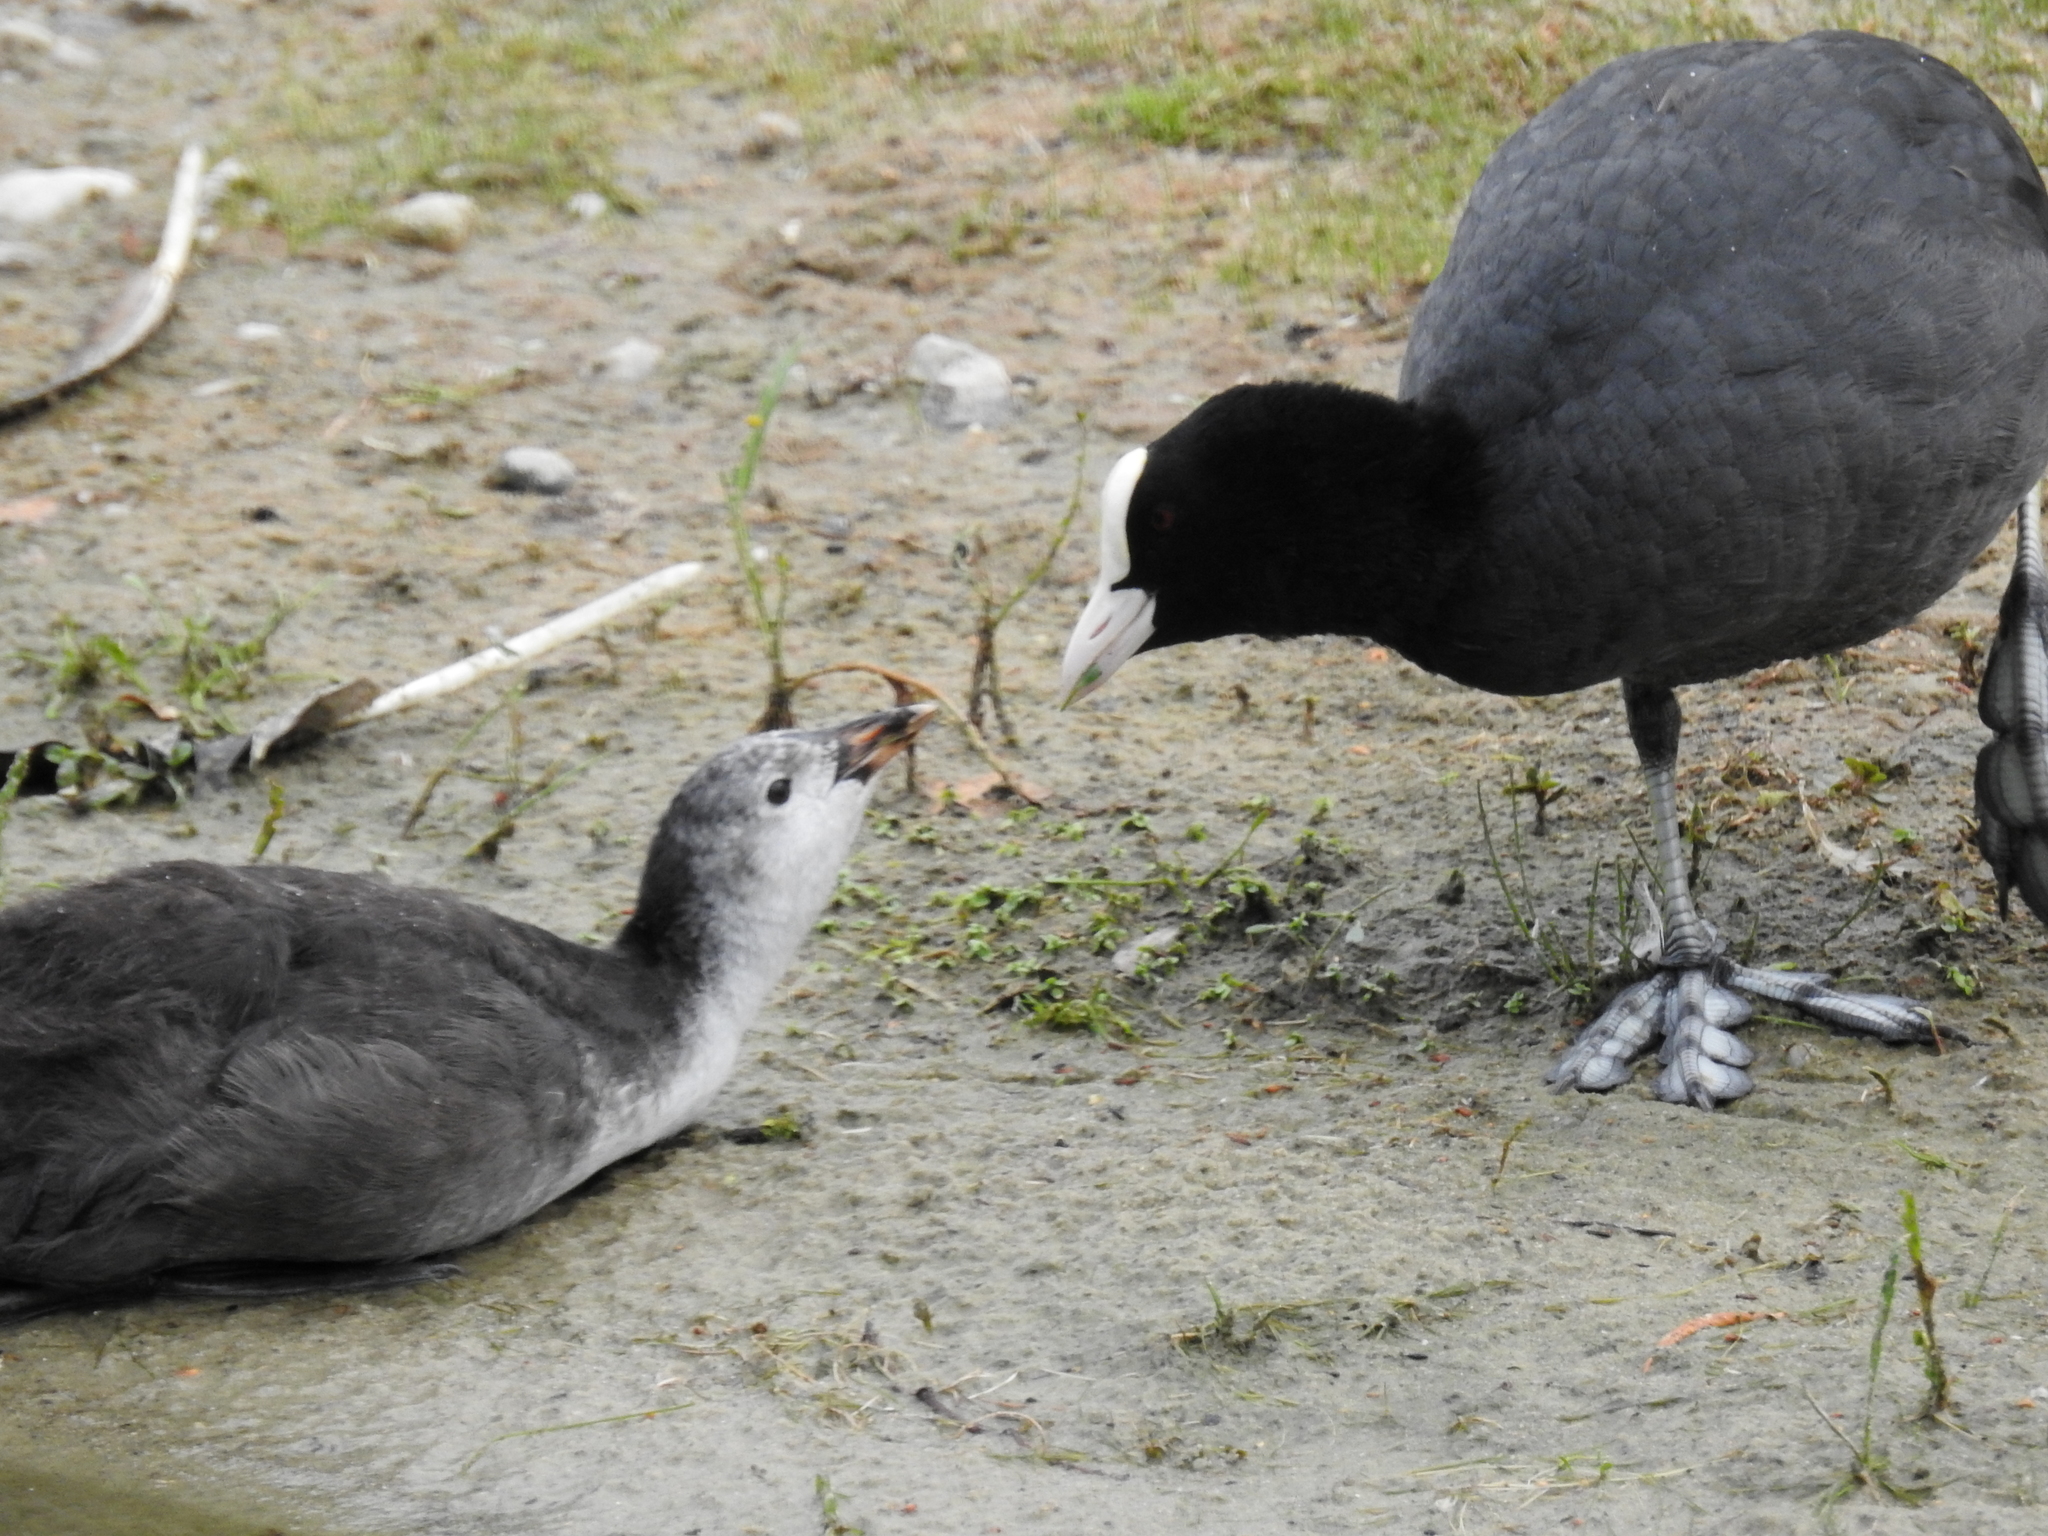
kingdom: Animalia
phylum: Chordata
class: Aves
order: Gruiformes
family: Rallidae
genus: Fulica
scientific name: Fulica atra
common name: Eurasian coot
